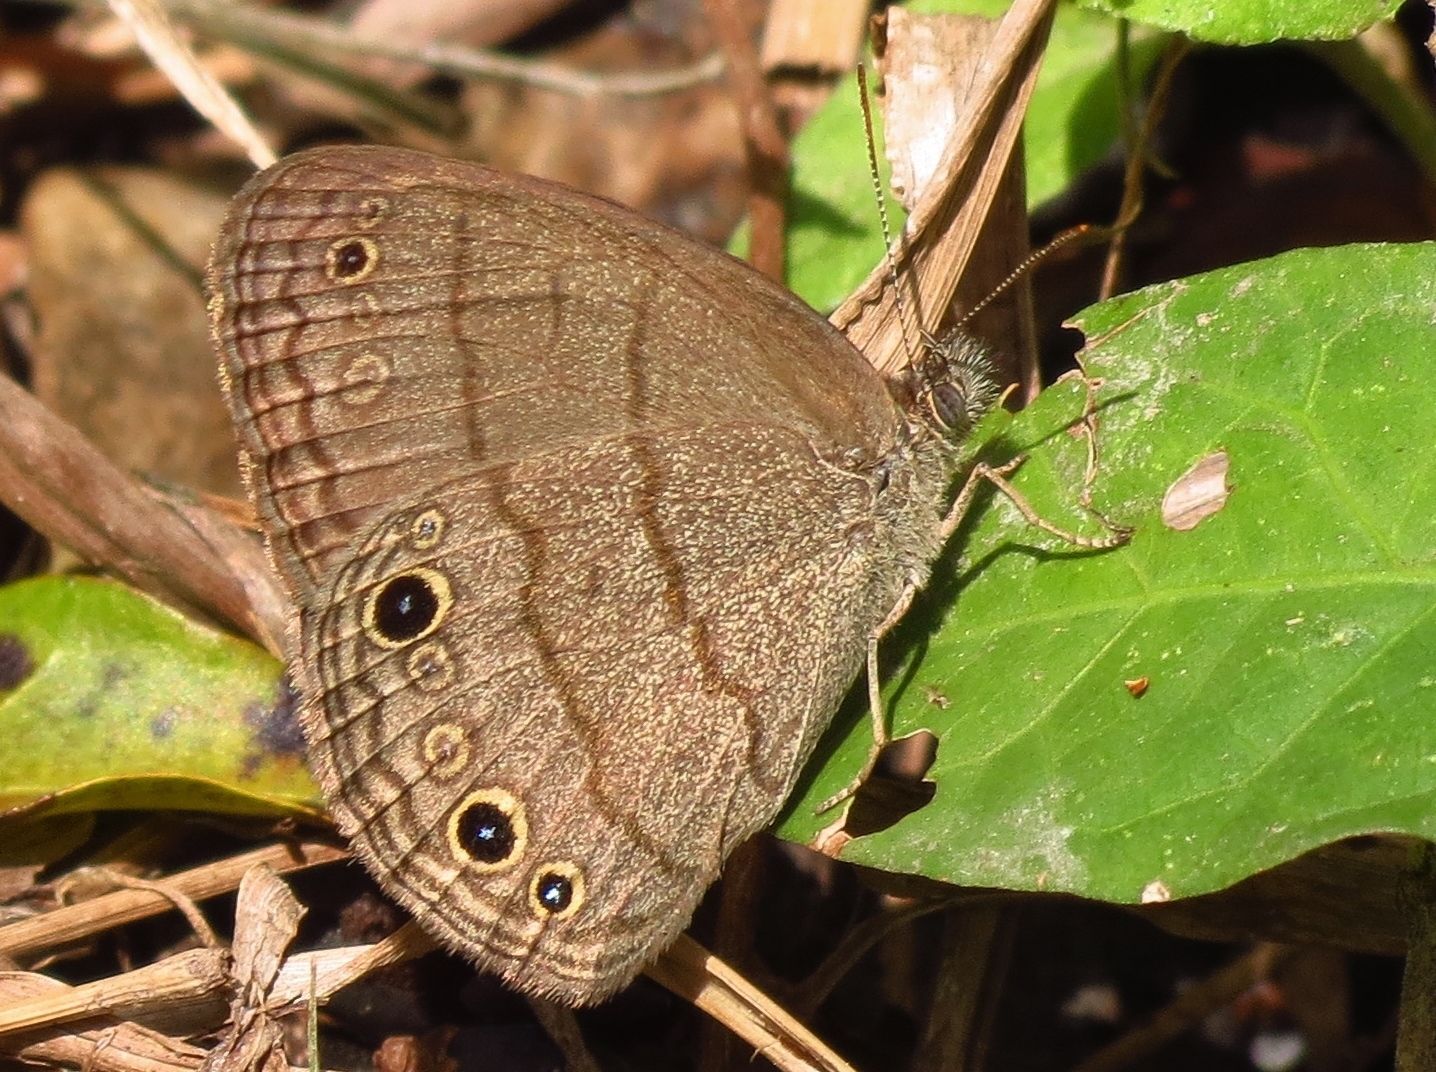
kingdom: Animalia
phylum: Arthropoda
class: Insecta
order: Lepidoptera
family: Nymphalidae
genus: Hermeuptychia
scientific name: Hermeuptychia hermes
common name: Hermes satyr
